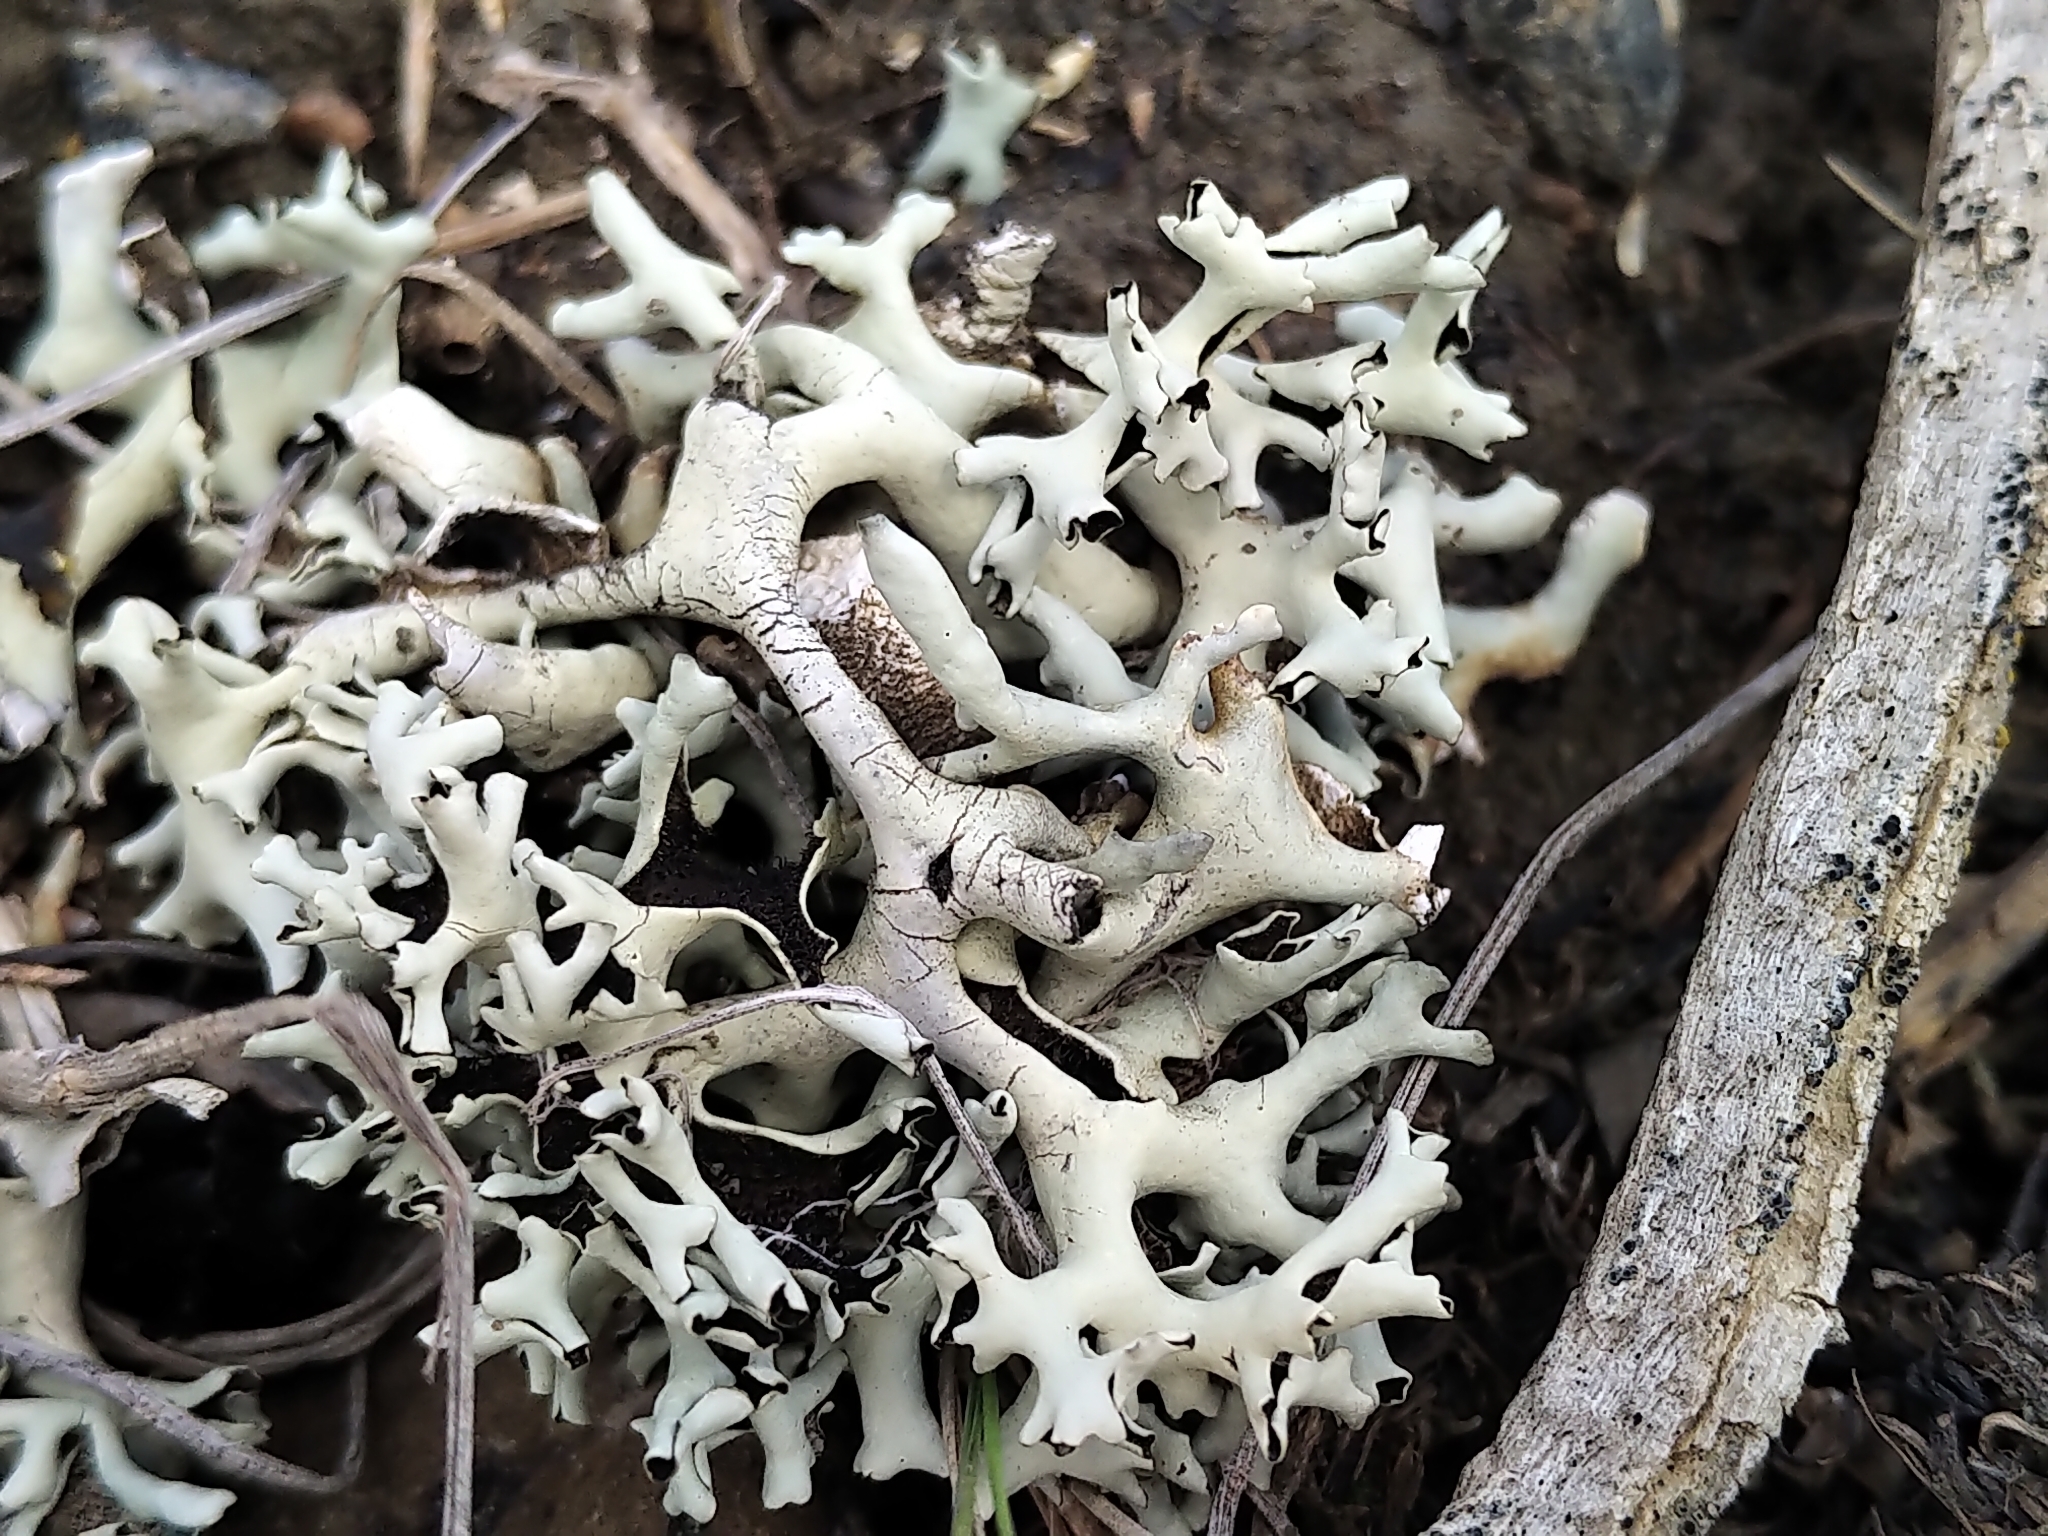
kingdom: Fungi
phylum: Ascomycota
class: Lecanoromycetes
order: Lecanorales
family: Parmeliaceae
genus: Xanthoparmelia
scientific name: Xanthoparmelia wyomingica
